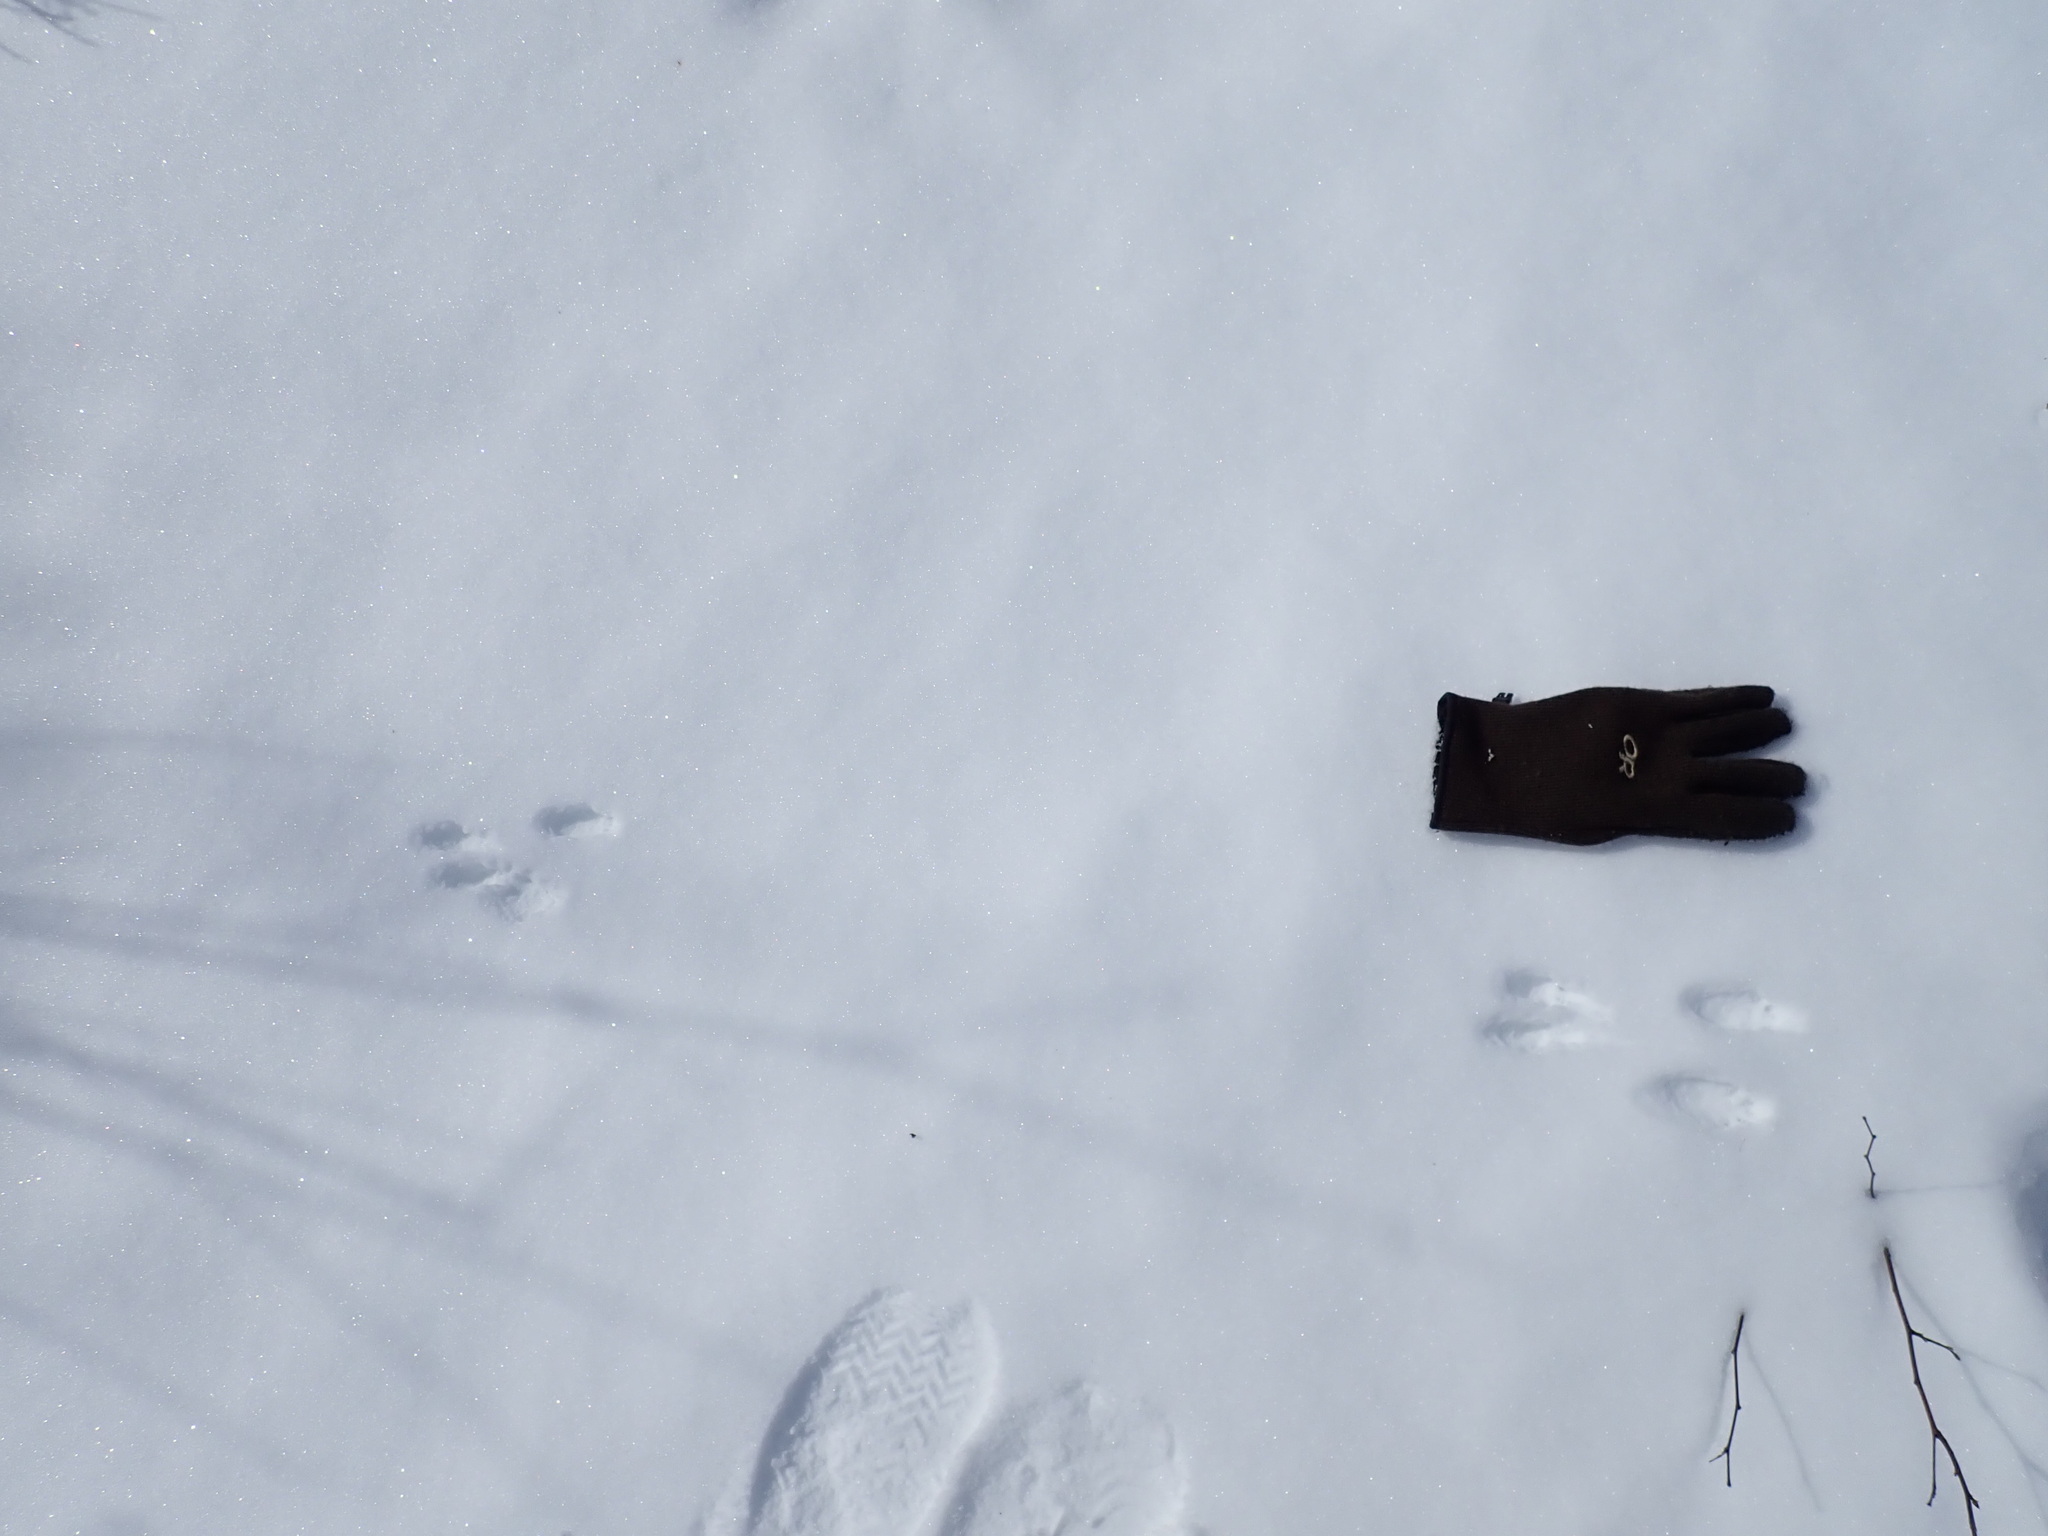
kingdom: Animalia
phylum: Chordata
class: Mammalia
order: Rodentia
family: Sciuridae
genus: Tamiasciurus
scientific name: Tamiasciurus hudsonicus
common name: Red squirrel
